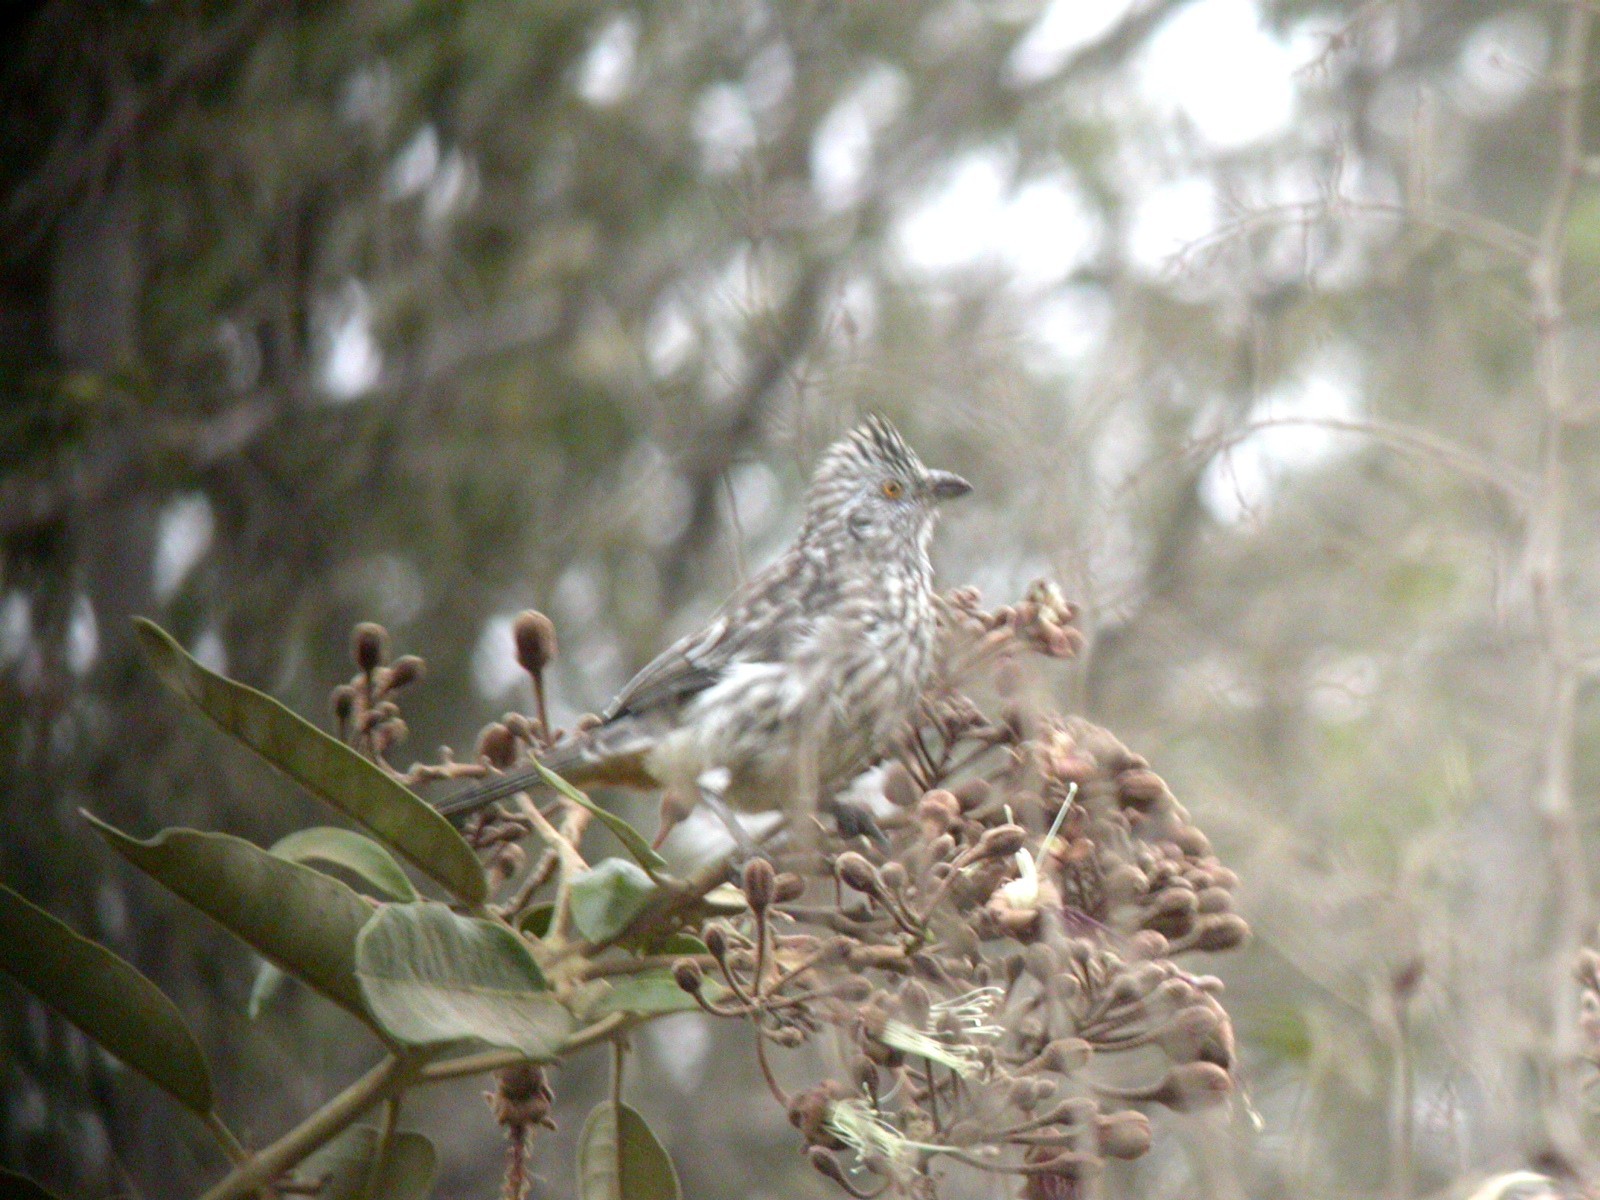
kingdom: Animalia
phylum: Chordata
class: Aves
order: Passeriformes
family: Cotingidae
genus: Phytotoma
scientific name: Phytotoma raimondii
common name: Peruvian plantcutter
